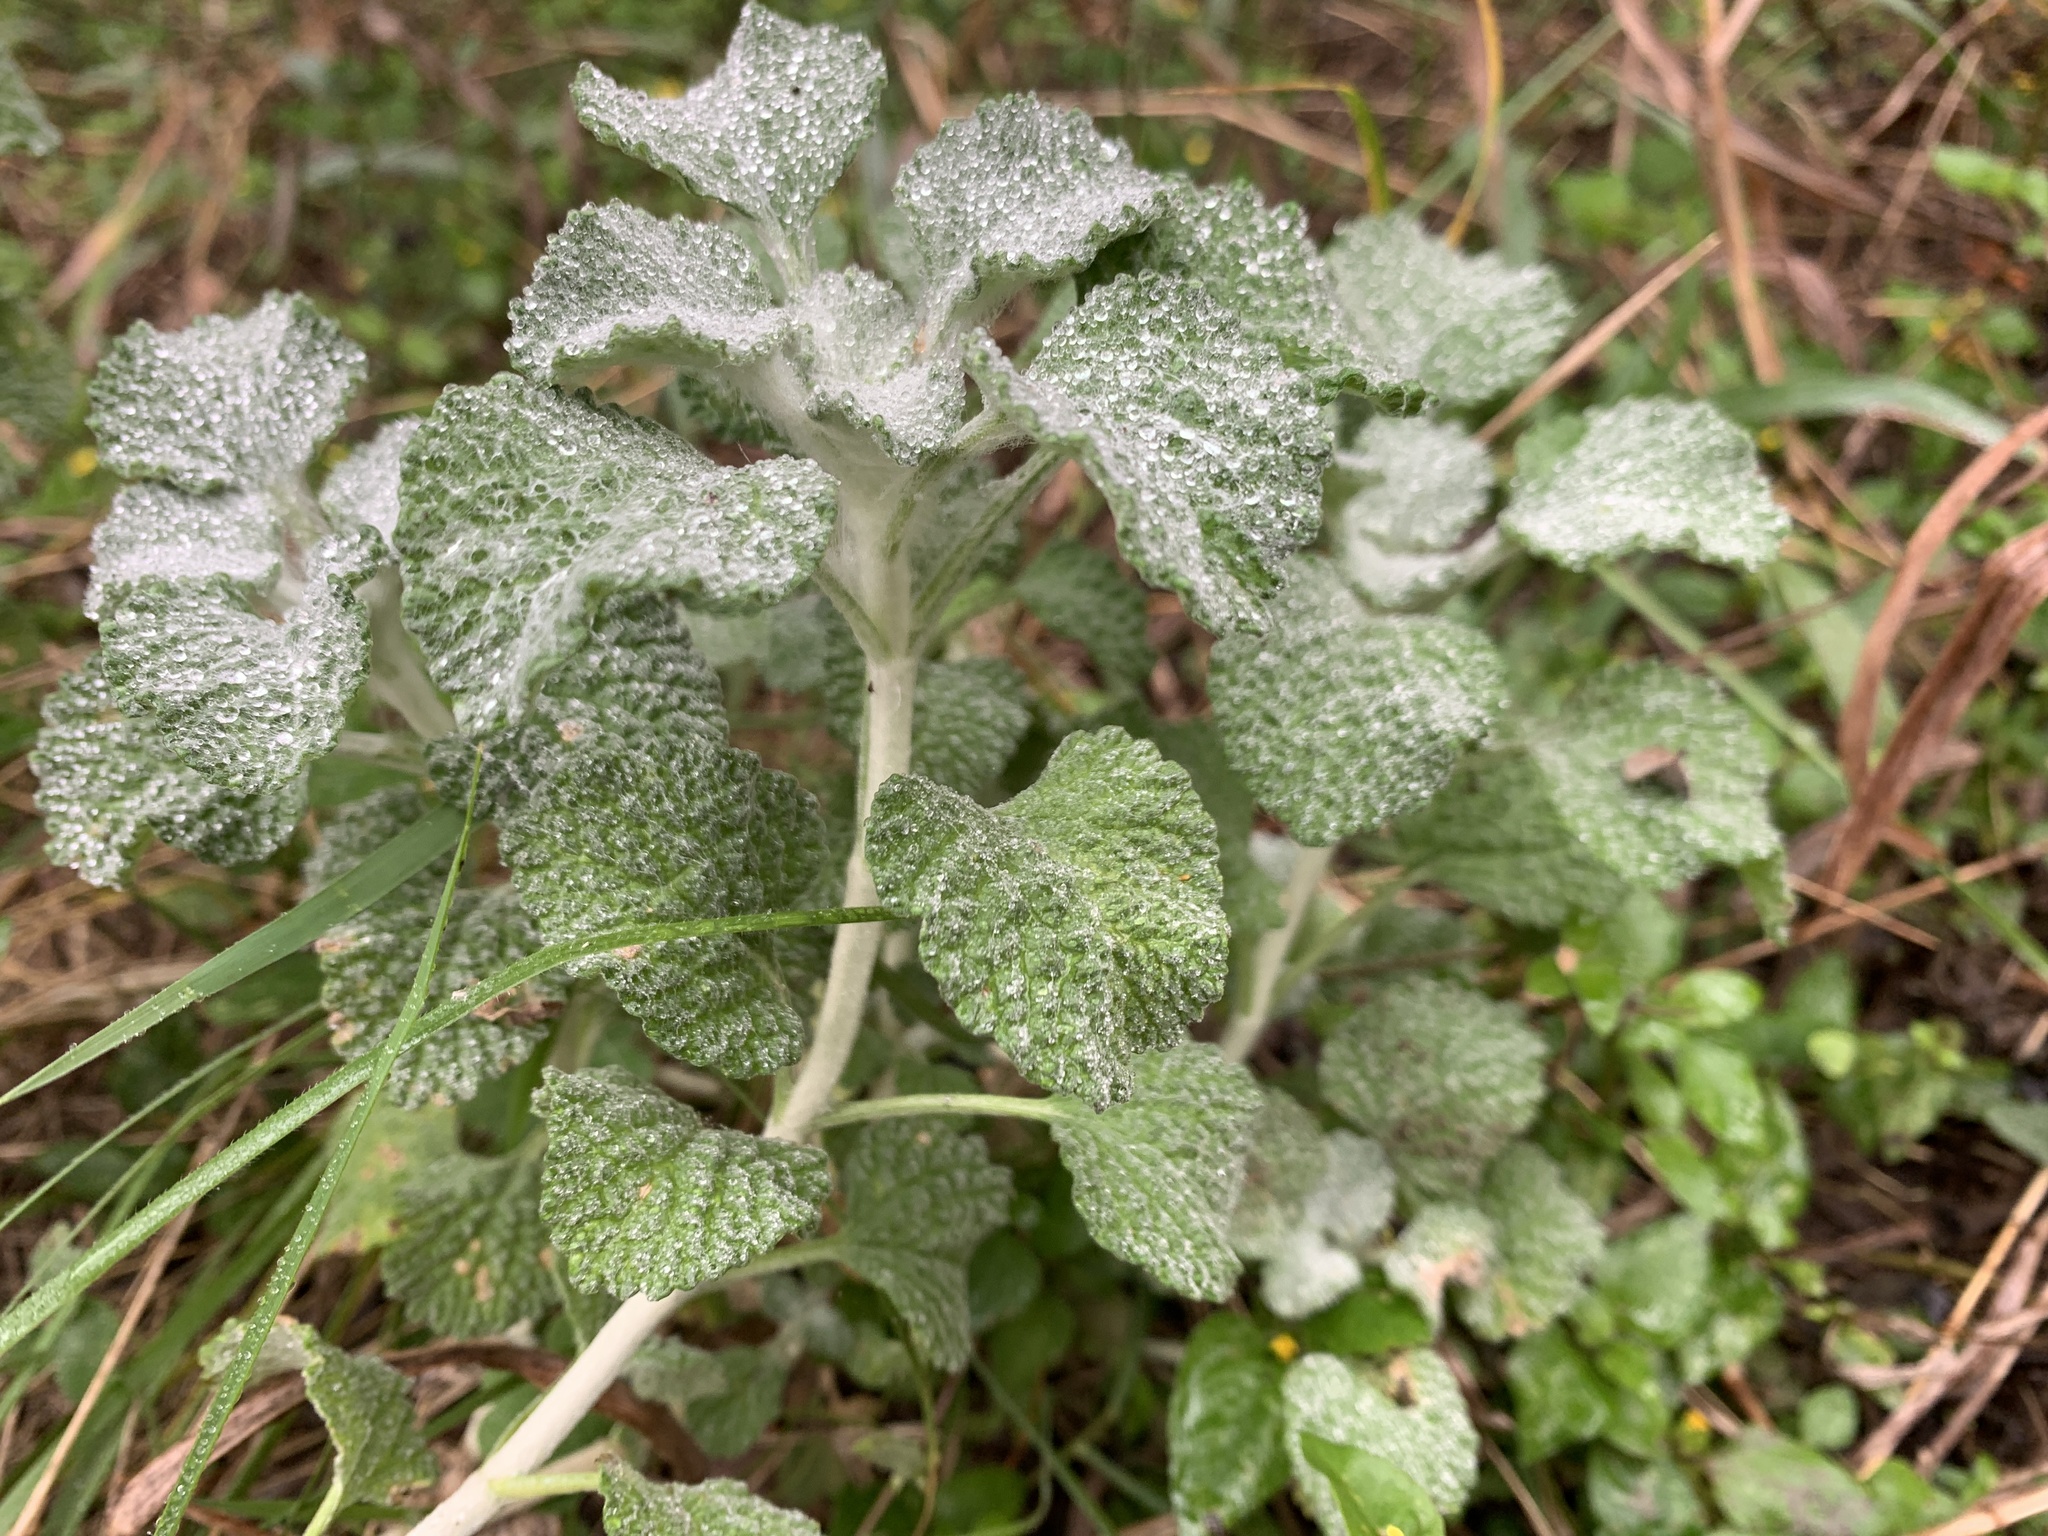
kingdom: Plantae
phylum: Tracheophyta
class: Magnoliopsida
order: Lamiales
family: Lamiaceae
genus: Marrubium
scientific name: Marrubium vulgare
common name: Horehound
